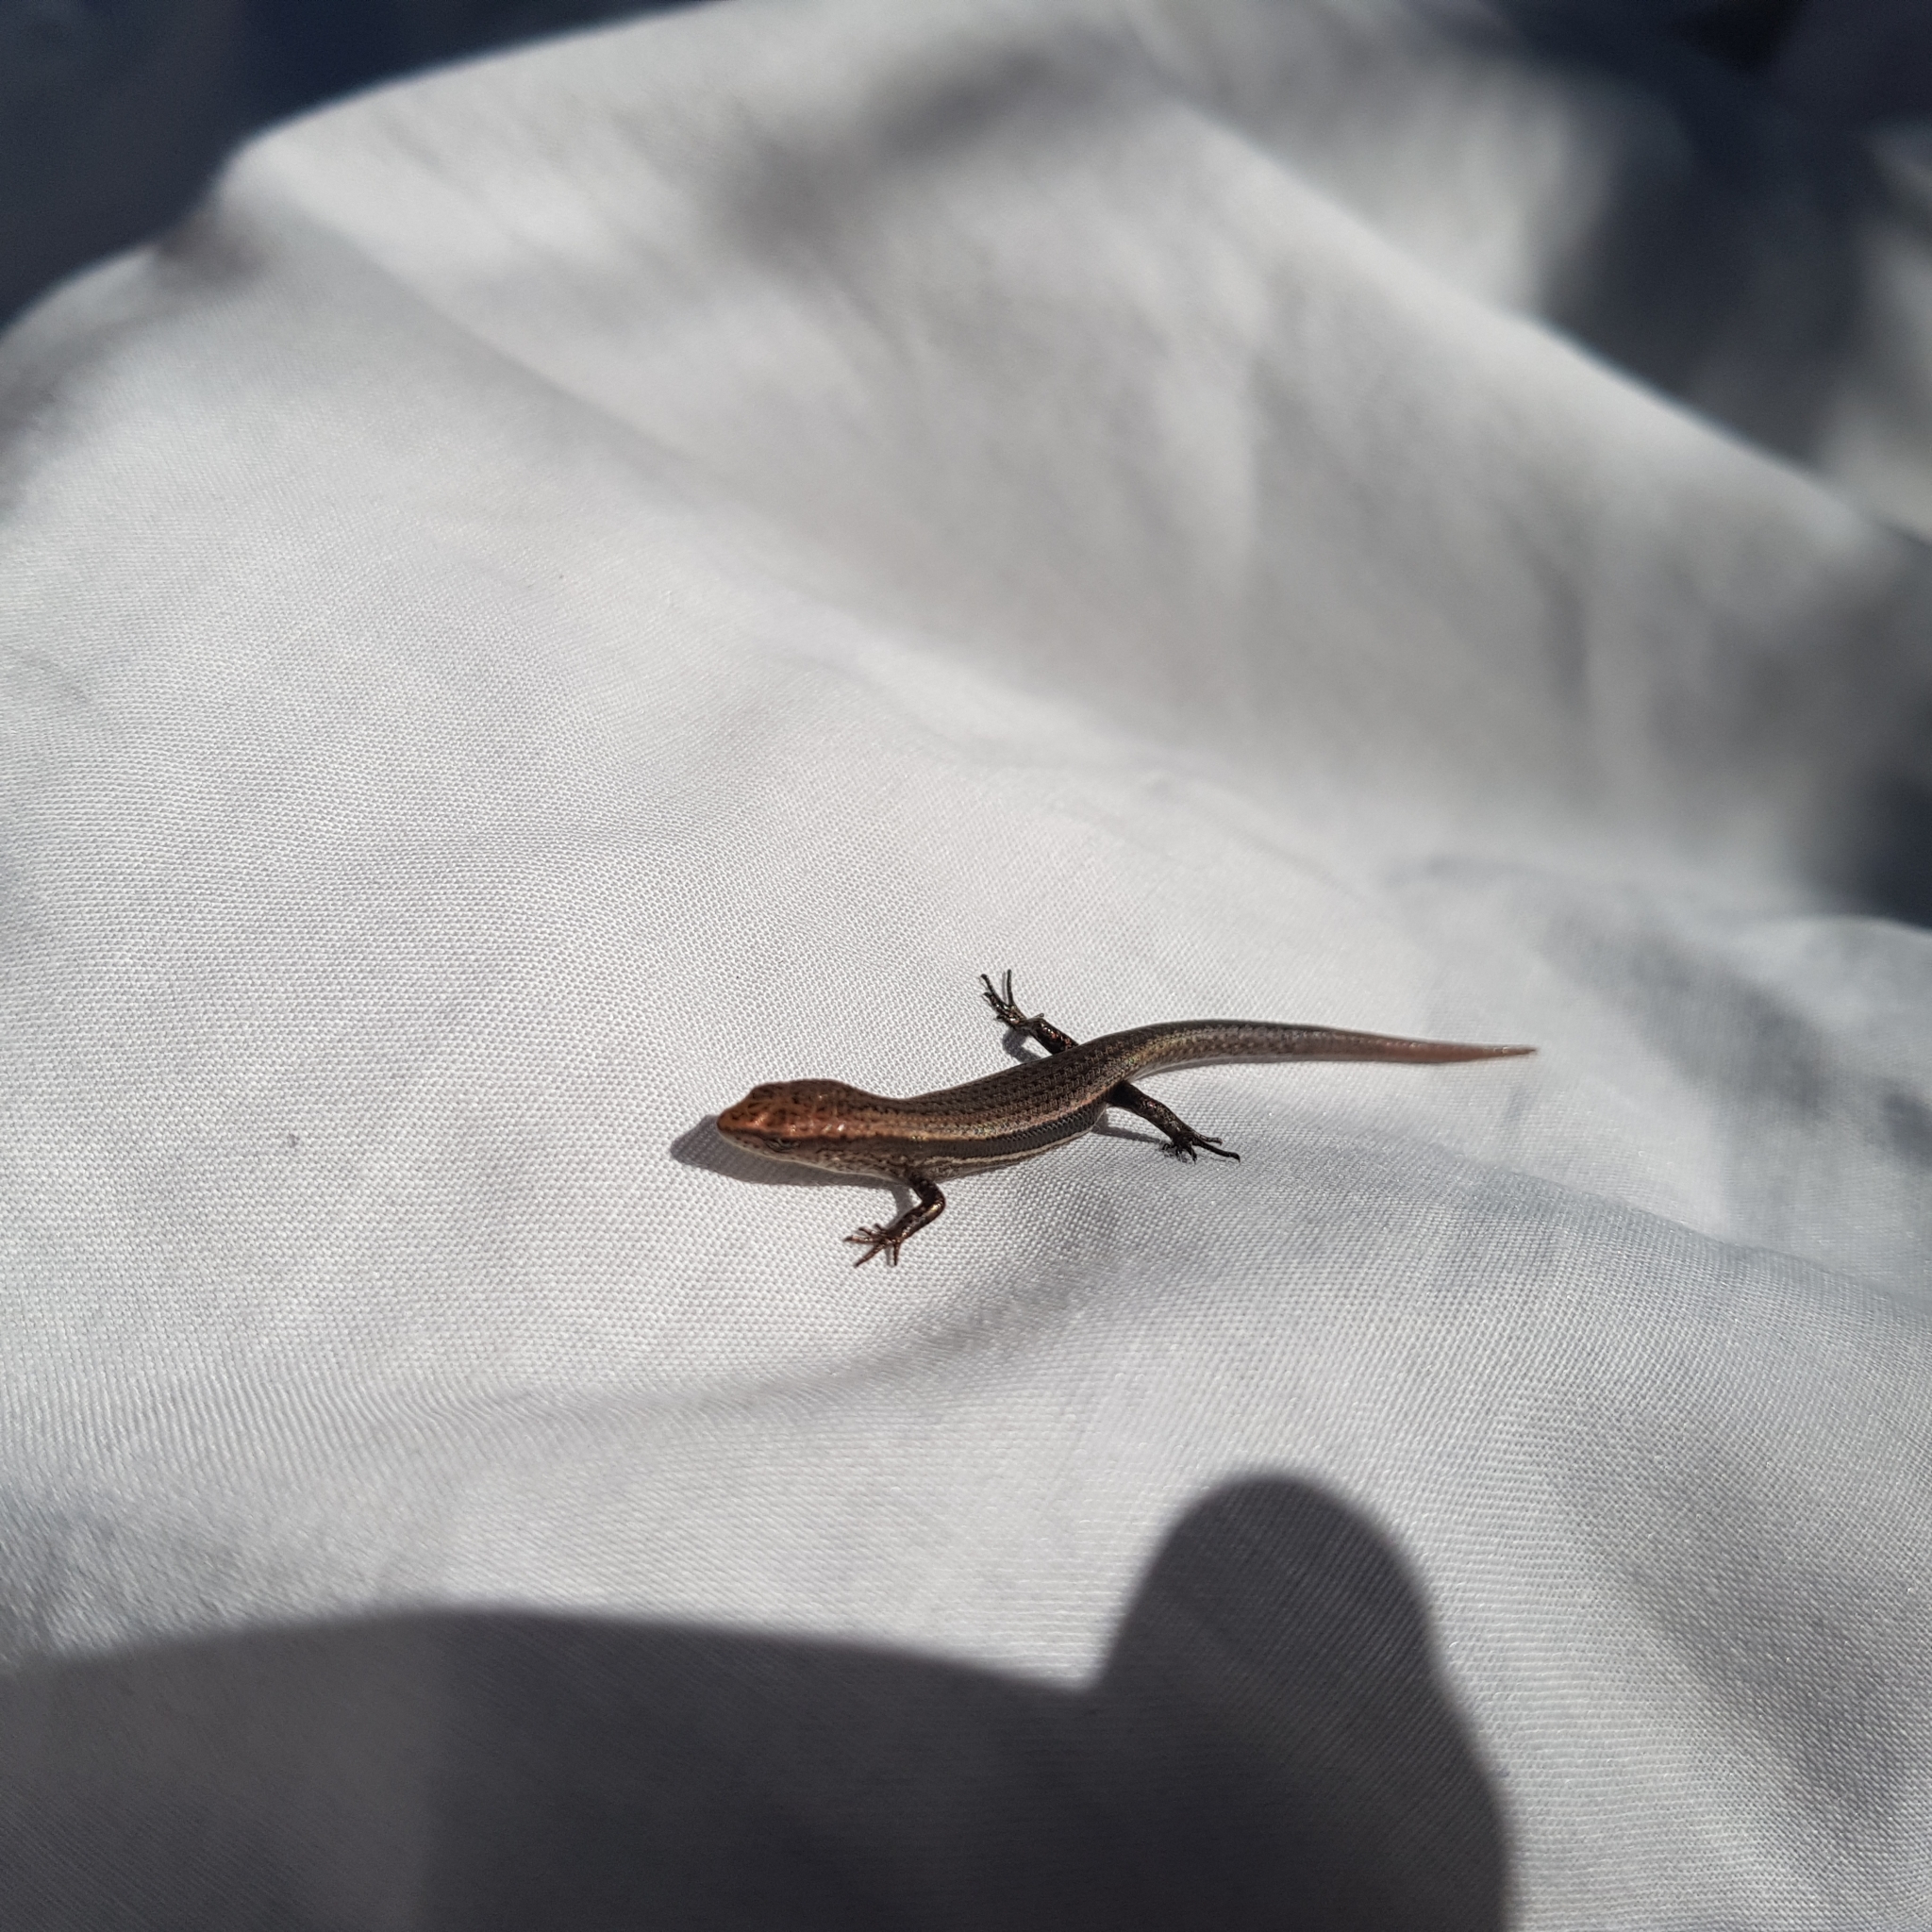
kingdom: Animalia
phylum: Chordata
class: Squamata
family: Scincidae
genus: Lampropholis
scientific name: Lampropholis delicata
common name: Plague skink
